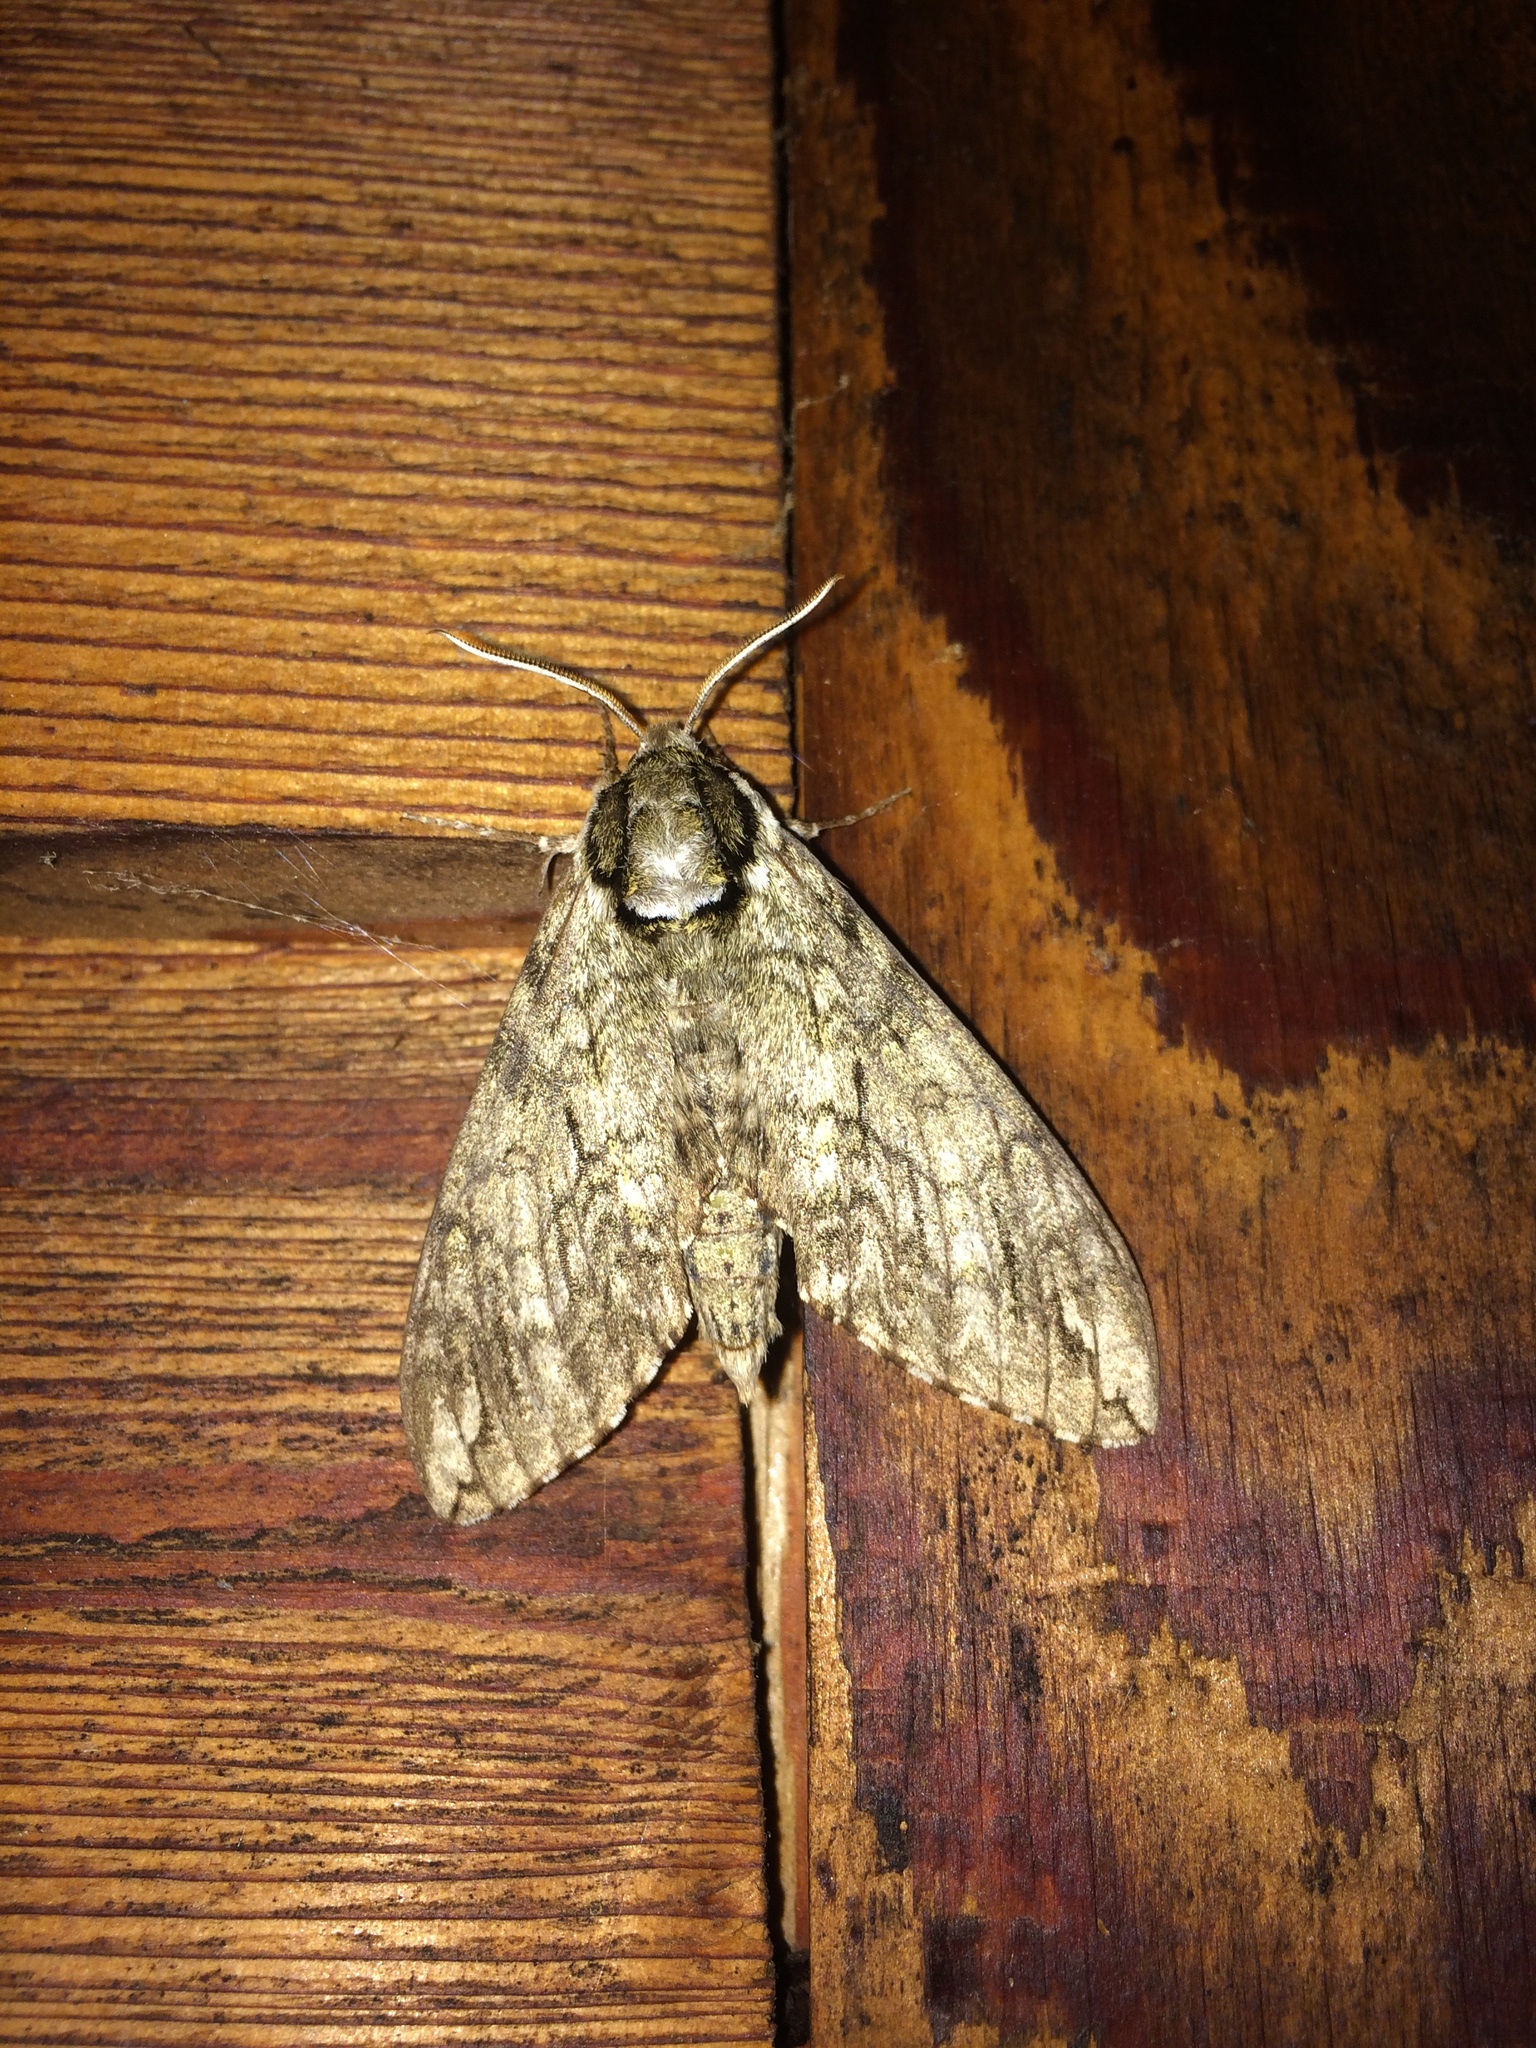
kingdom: Animalia
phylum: Arthropoda
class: Insecta
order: Lepidoptera
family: Sphingidae
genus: Ceratomia
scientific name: Ceratomia undulosa
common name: Waved sphinx
